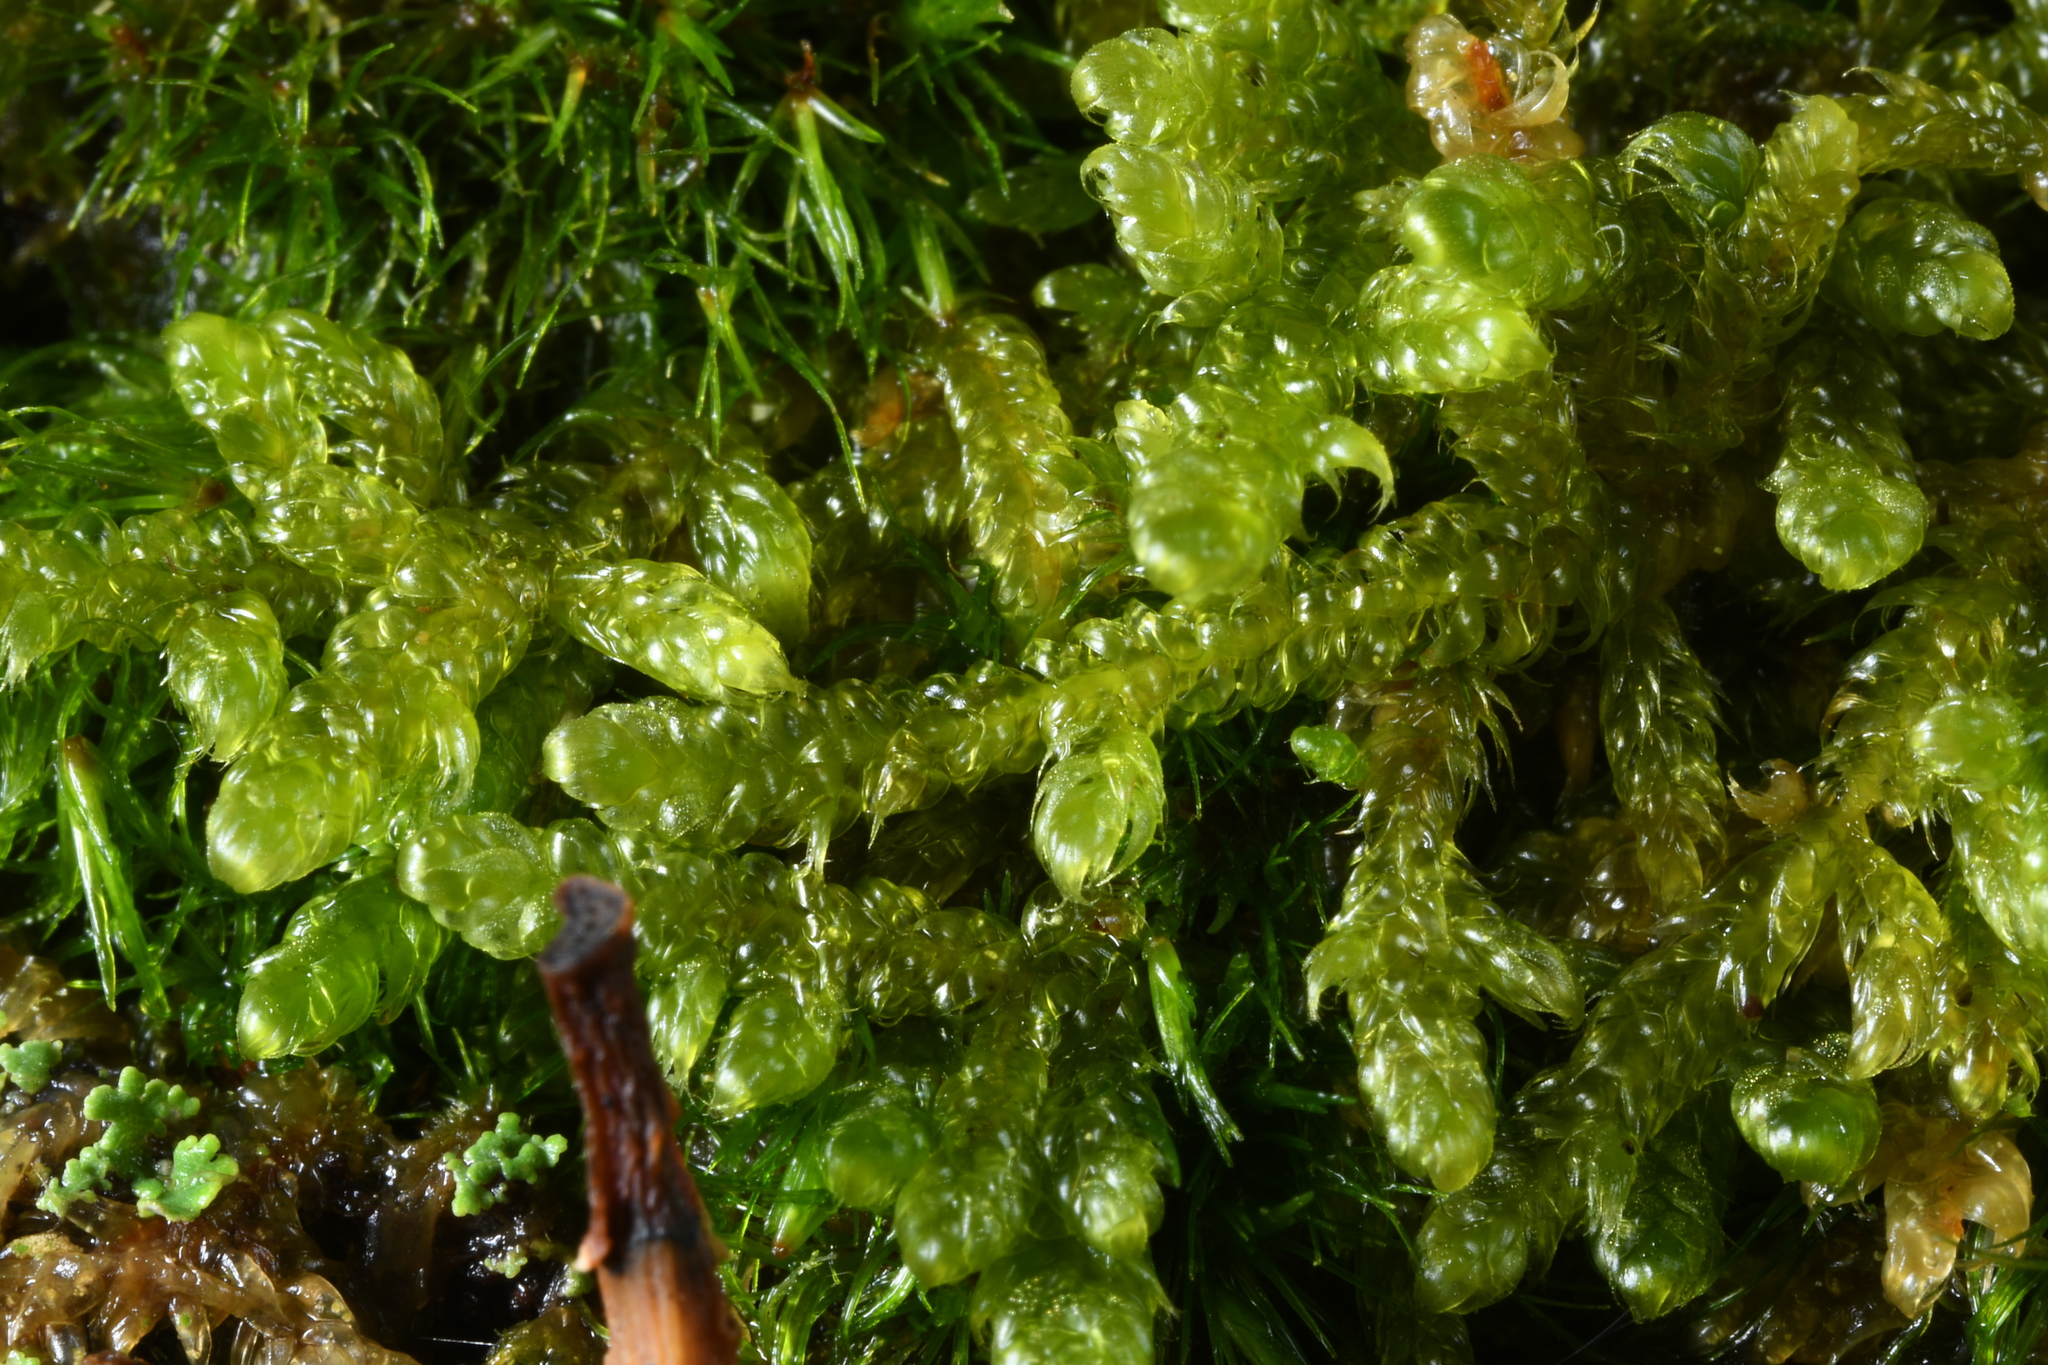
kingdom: Plantae
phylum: Bryophyta
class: Bryopsida
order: Hypnales
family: Hypnaceae
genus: Hypnum
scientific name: Hypnum cupressiforme
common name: Cypress-leaved plait-moss
